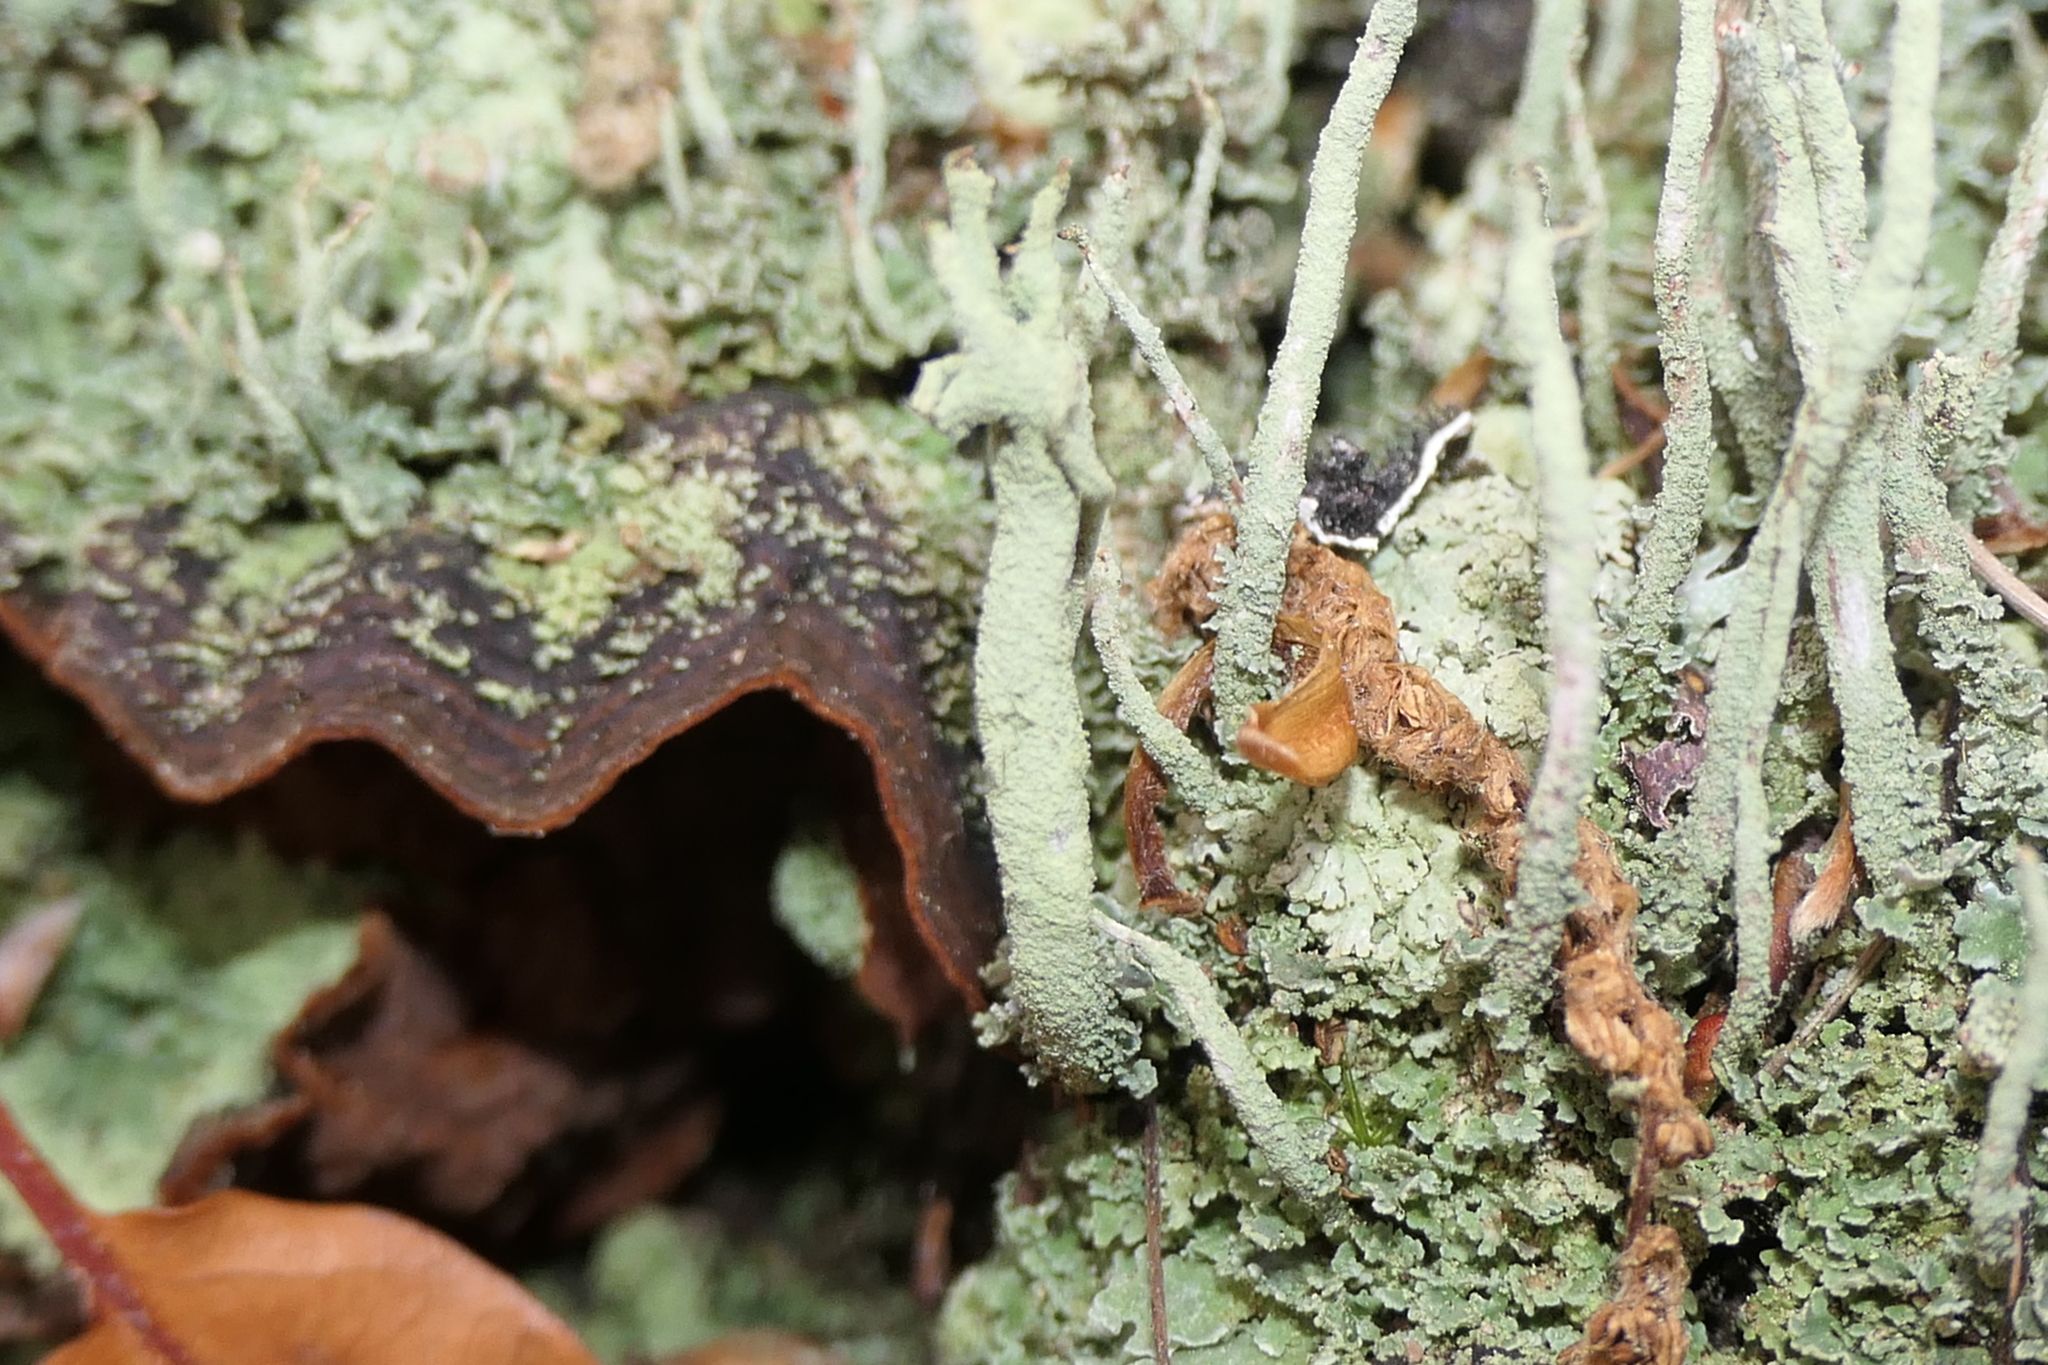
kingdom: Fungi
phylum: Ascomycota
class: Lecanoromycetes
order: Lecanorales
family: Cladoniaceae
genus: Cladonia
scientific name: Cladonia diversa
